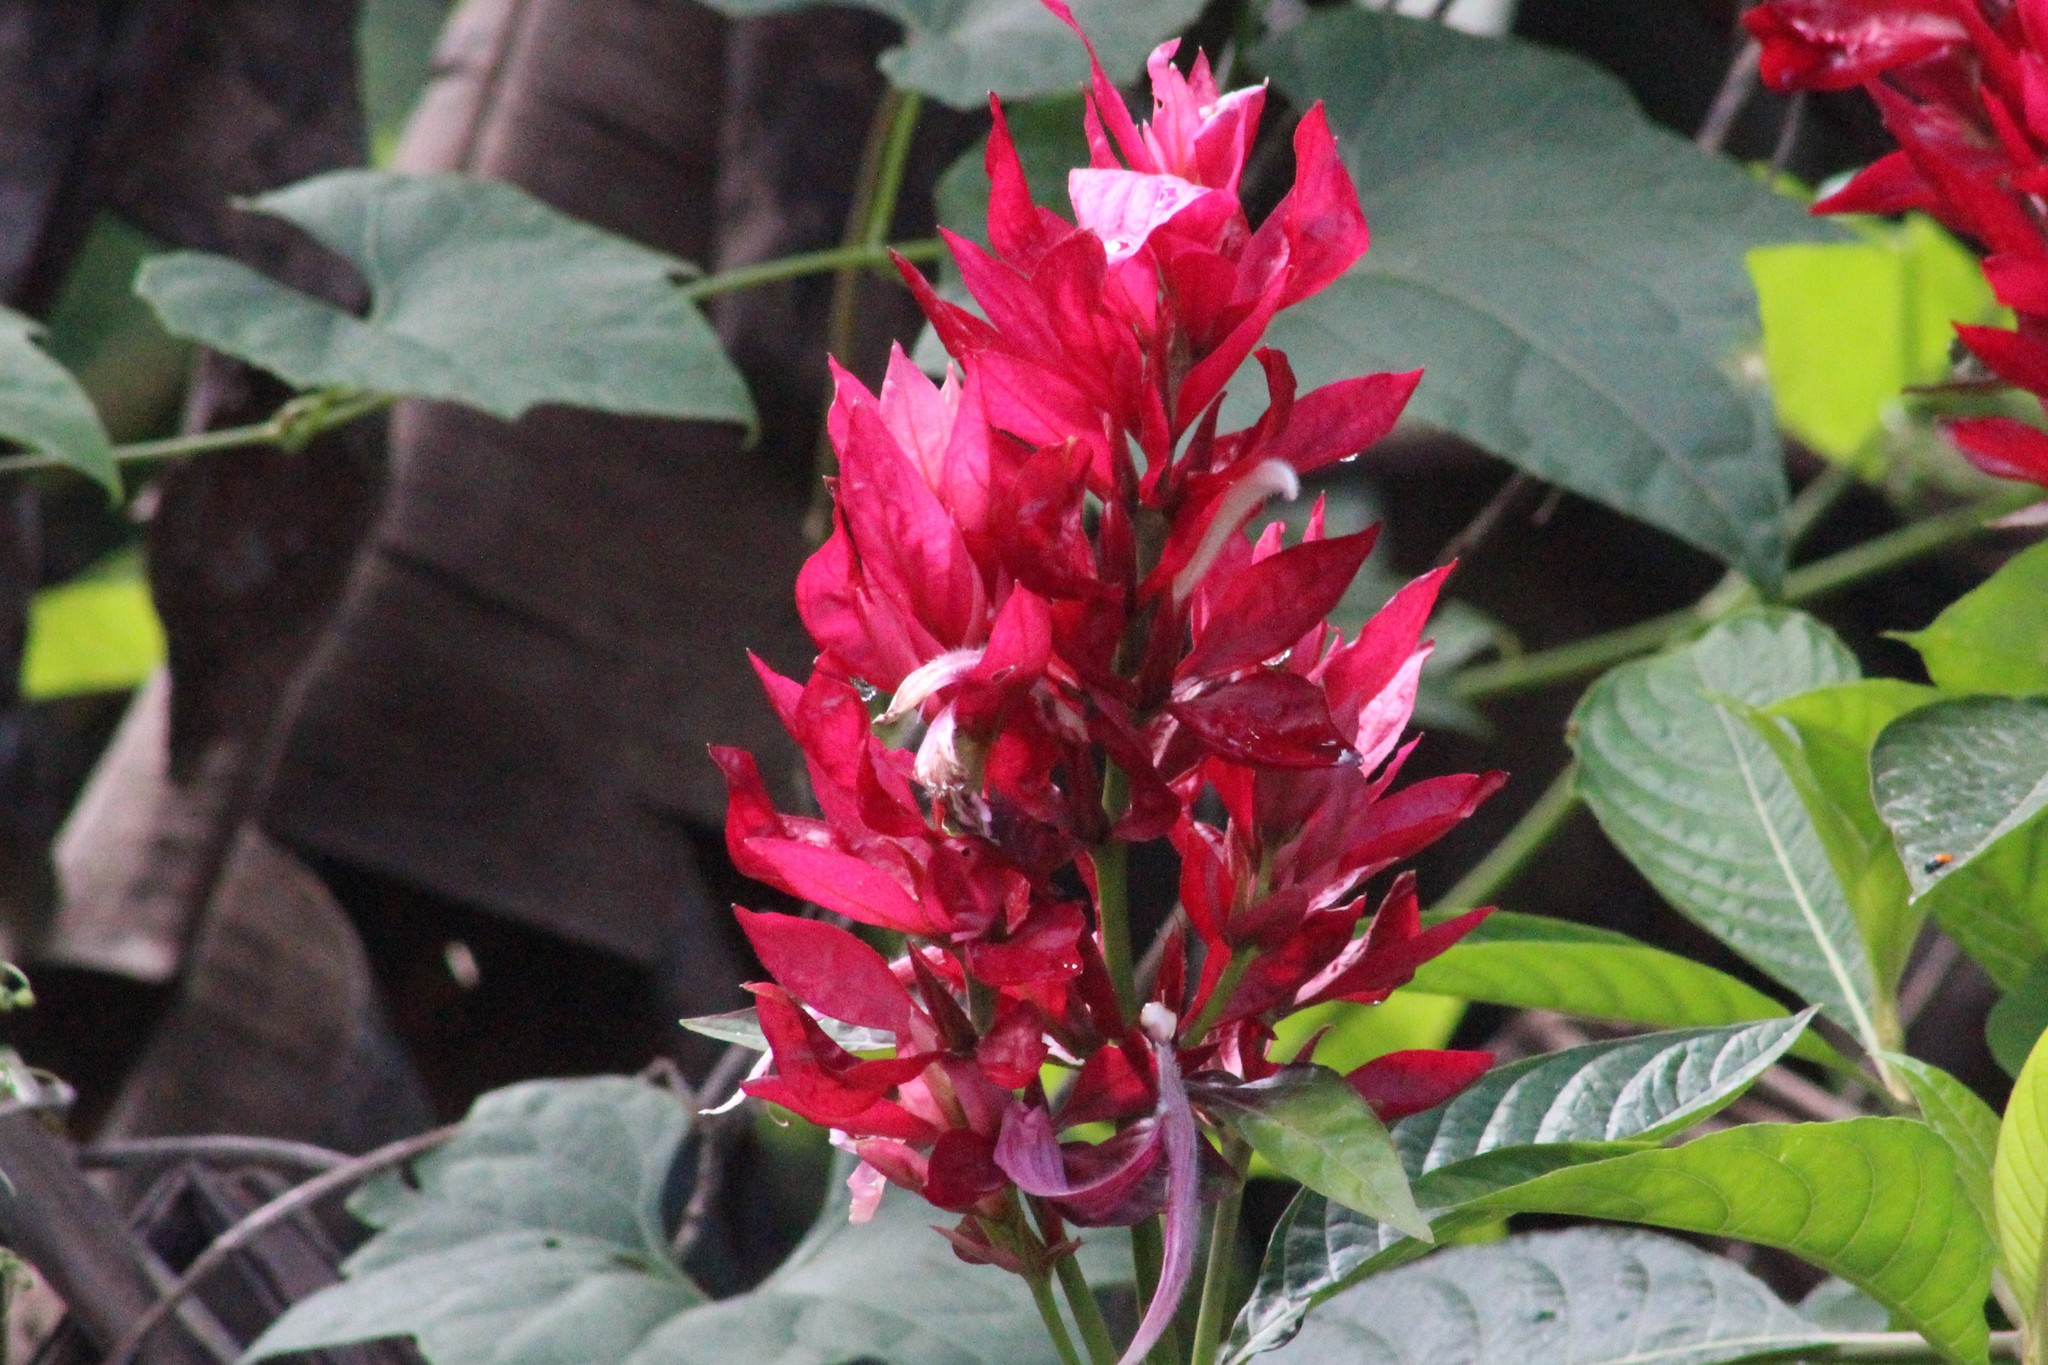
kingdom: Plantae
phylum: Tracheophyta
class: Magnoliopsida
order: Lamiales
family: Acanthaceae
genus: Megaskepasma
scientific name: Megaskepasma erythrochlamys
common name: Brazilian red-cloak
